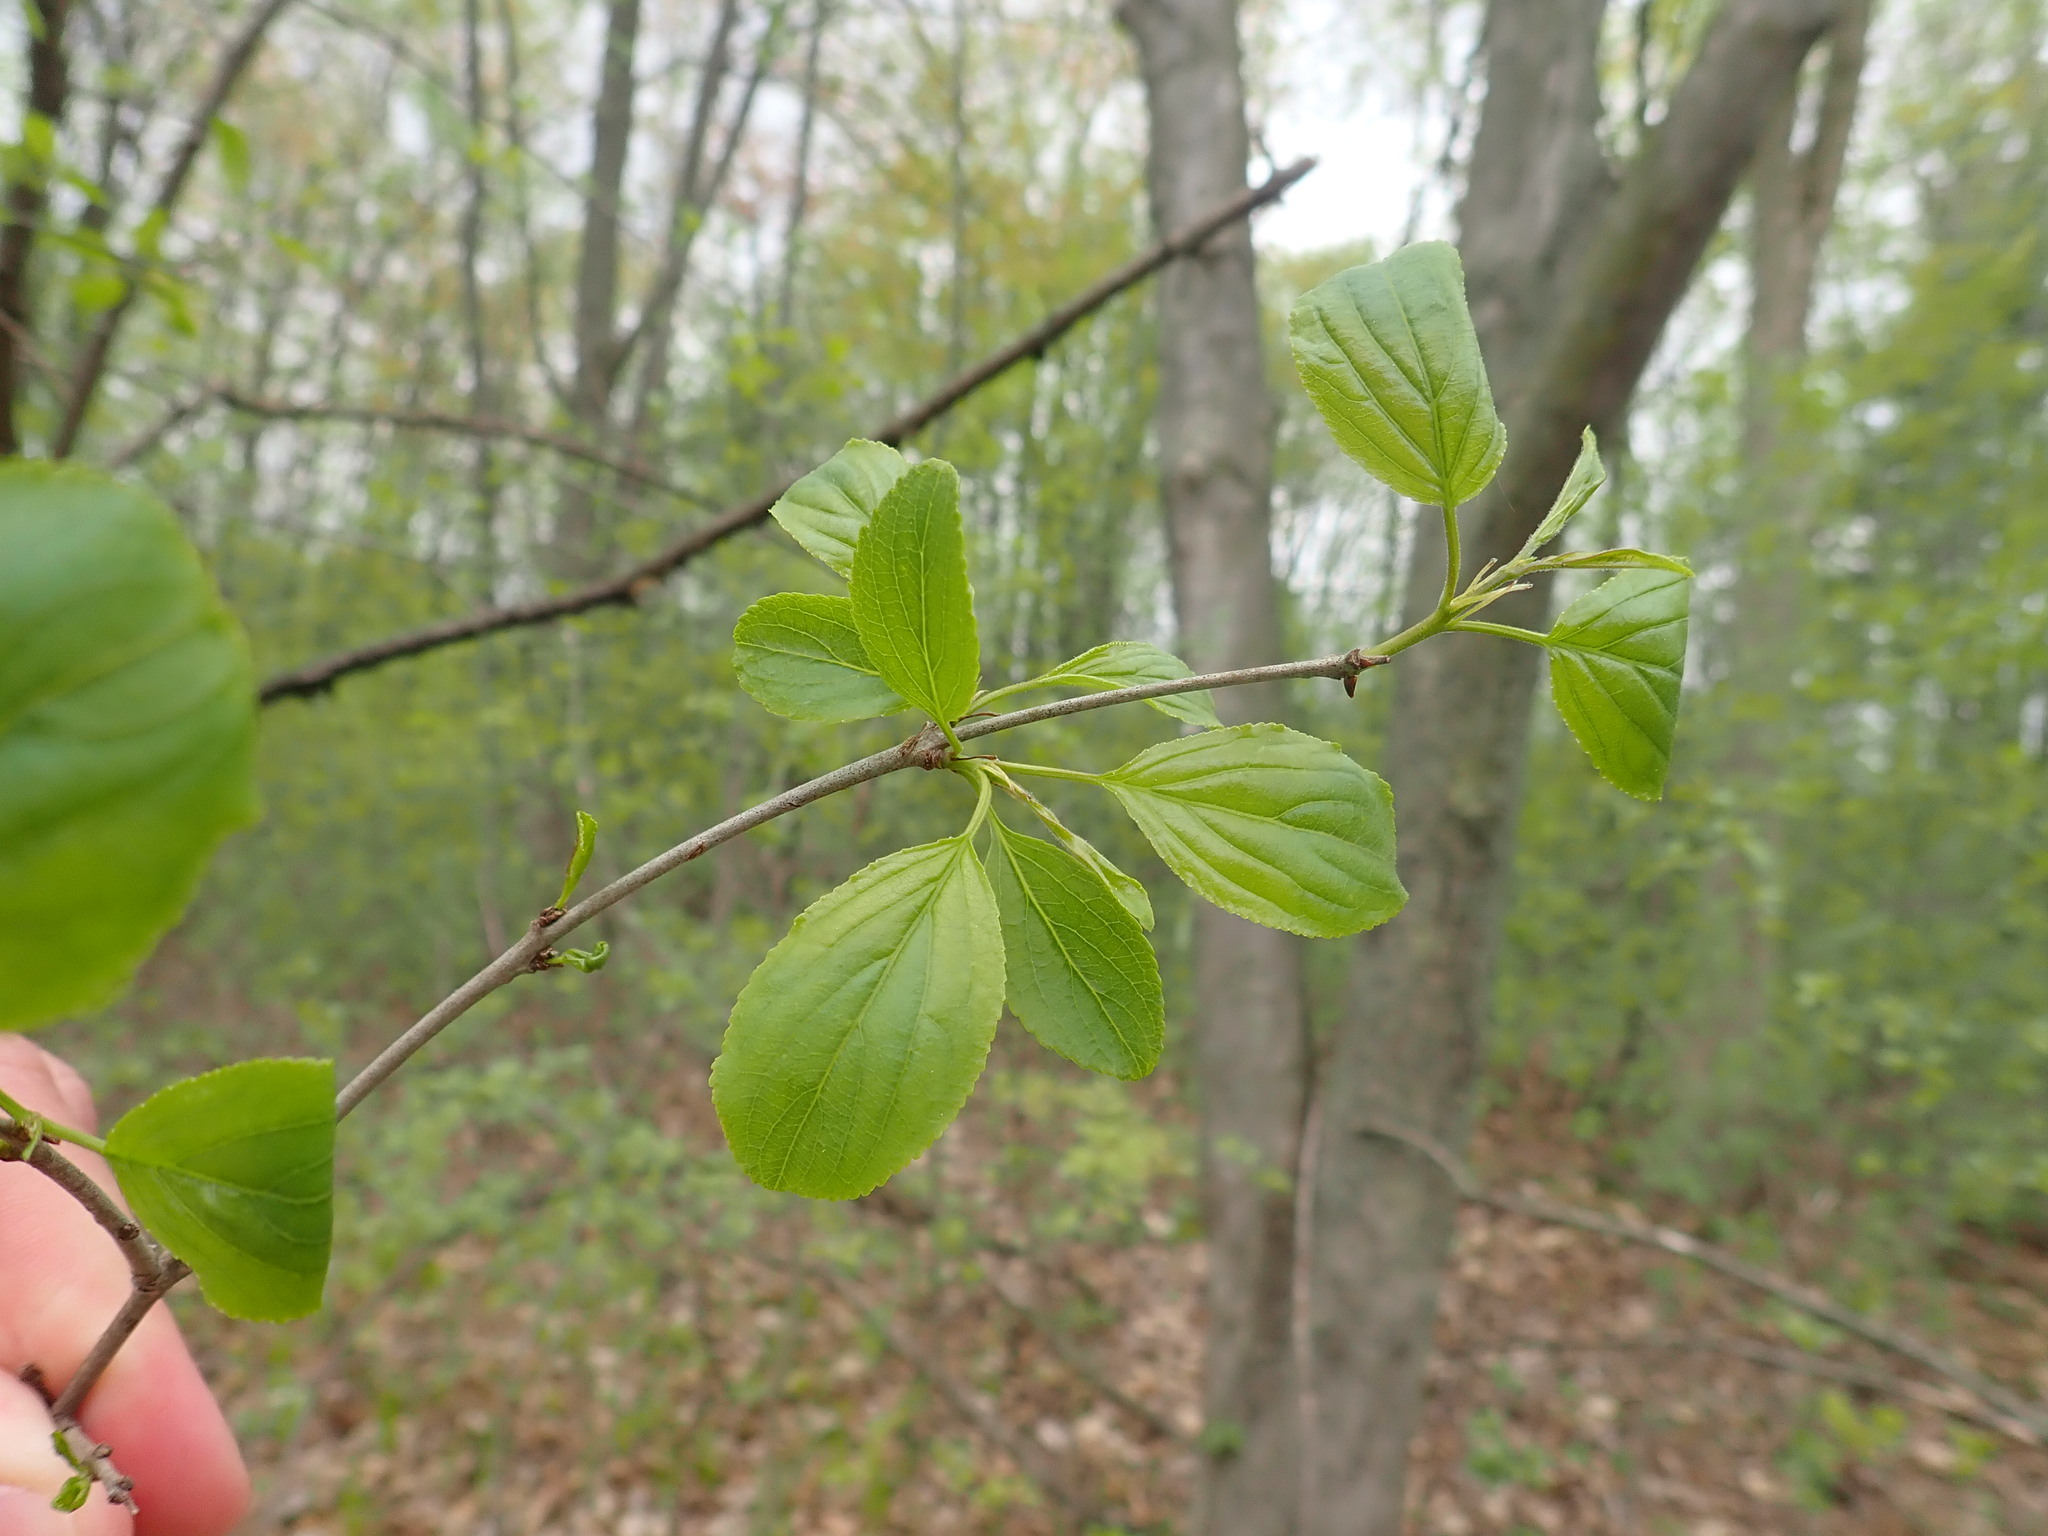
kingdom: Plantae
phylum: Tracheophyta
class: Magnoliopsida
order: Rosales
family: Rhamnaceae
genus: Rhamnus
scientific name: Rhamnus cathartica
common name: Common buckthorn
